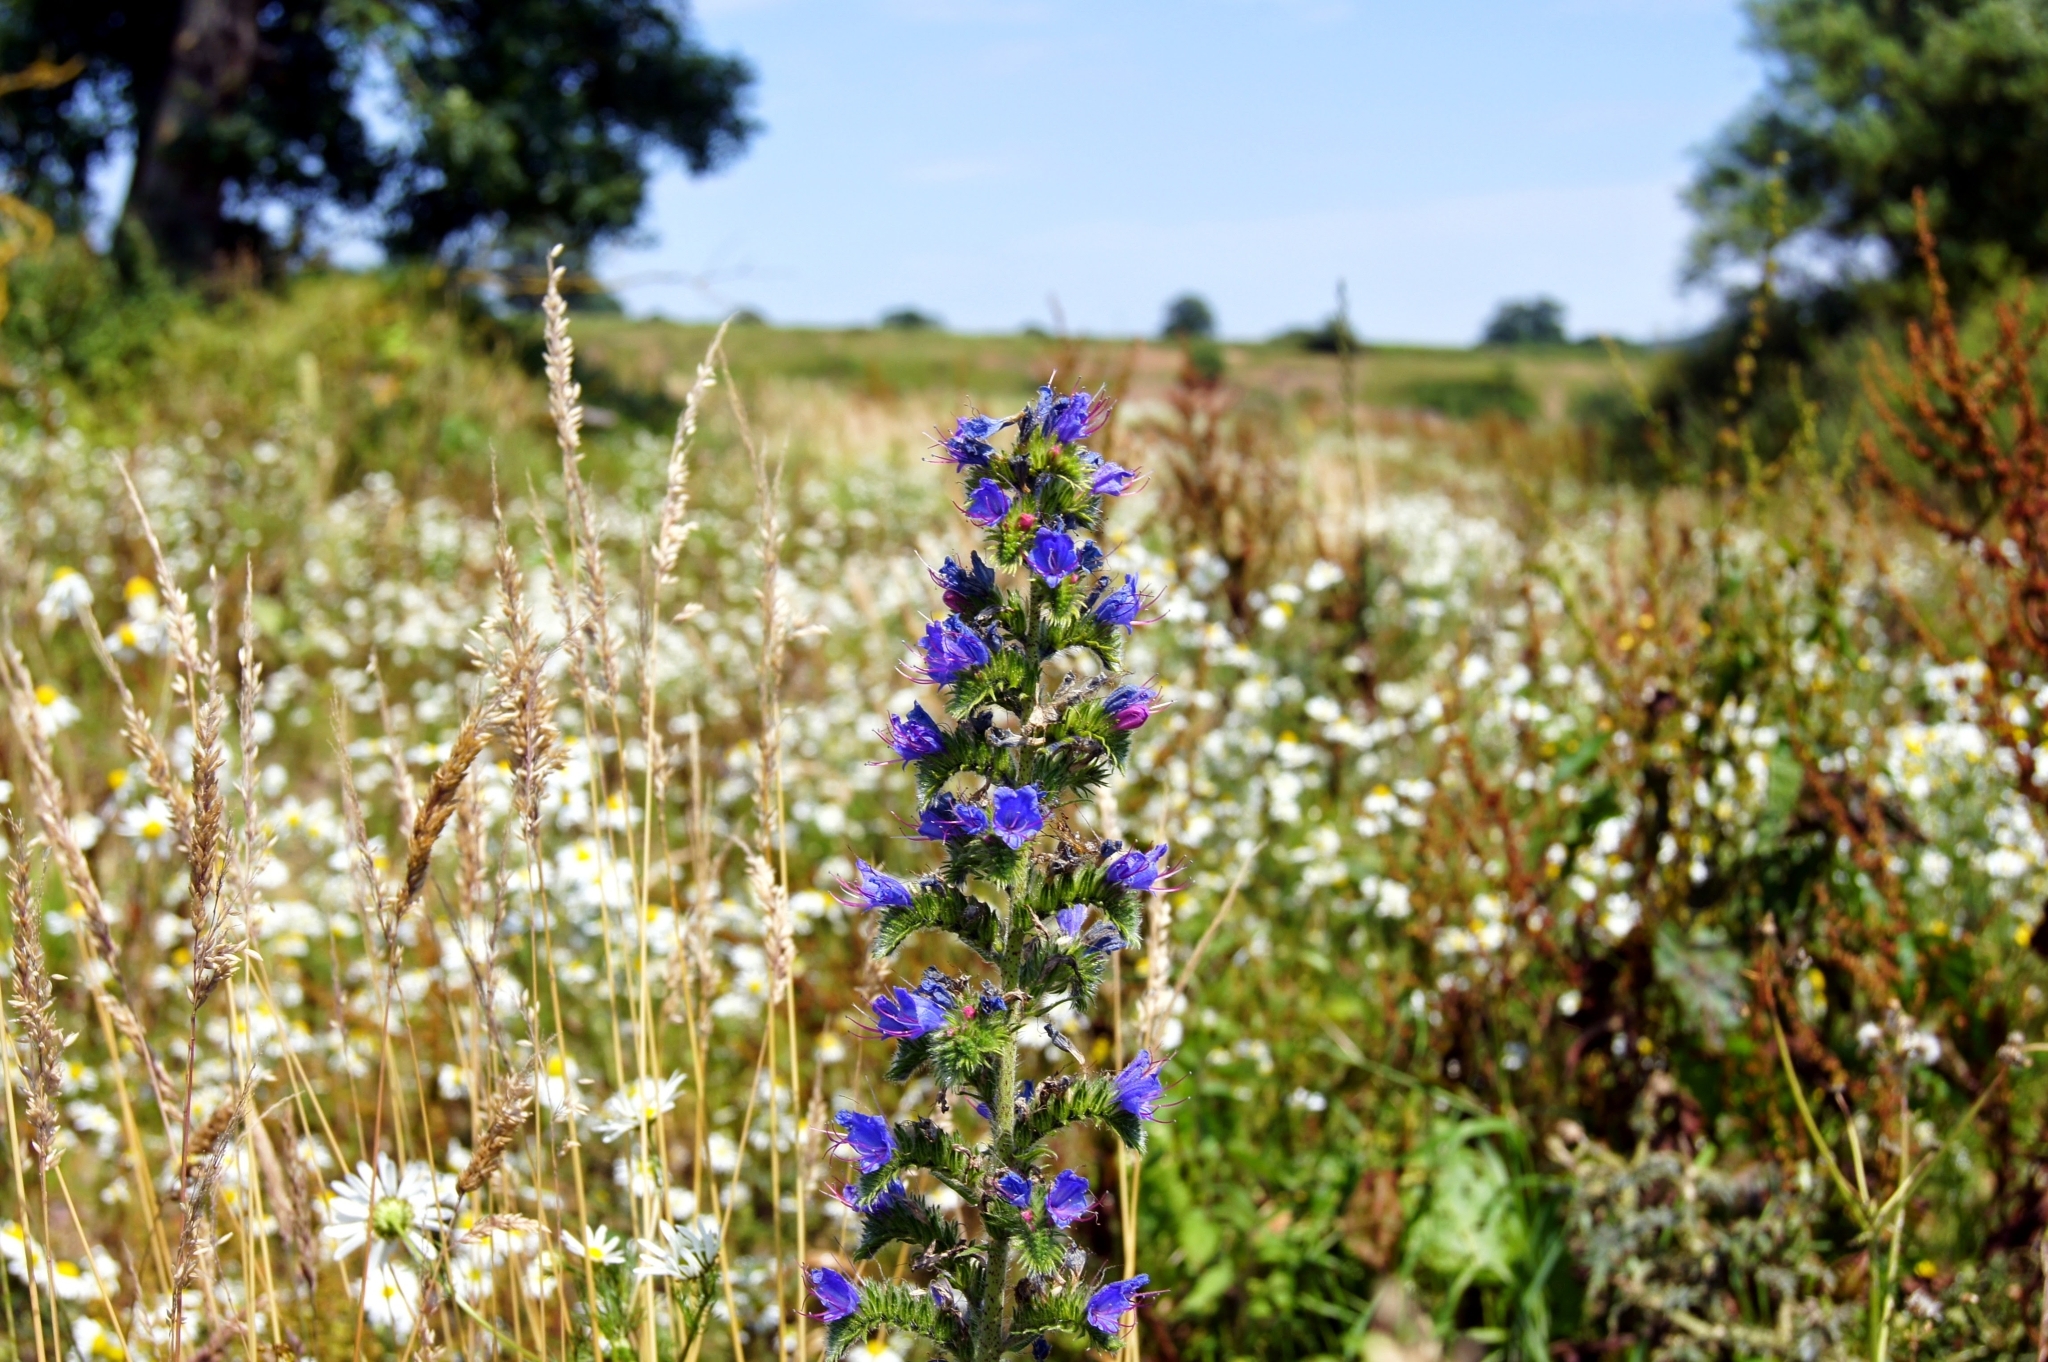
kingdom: Plantae
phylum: Tracheophyta
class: Magnoliopsida
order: Boraginales
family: Boraginaceae
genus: Echium
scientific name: Echium vulgare
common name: Common viper's bugloss
